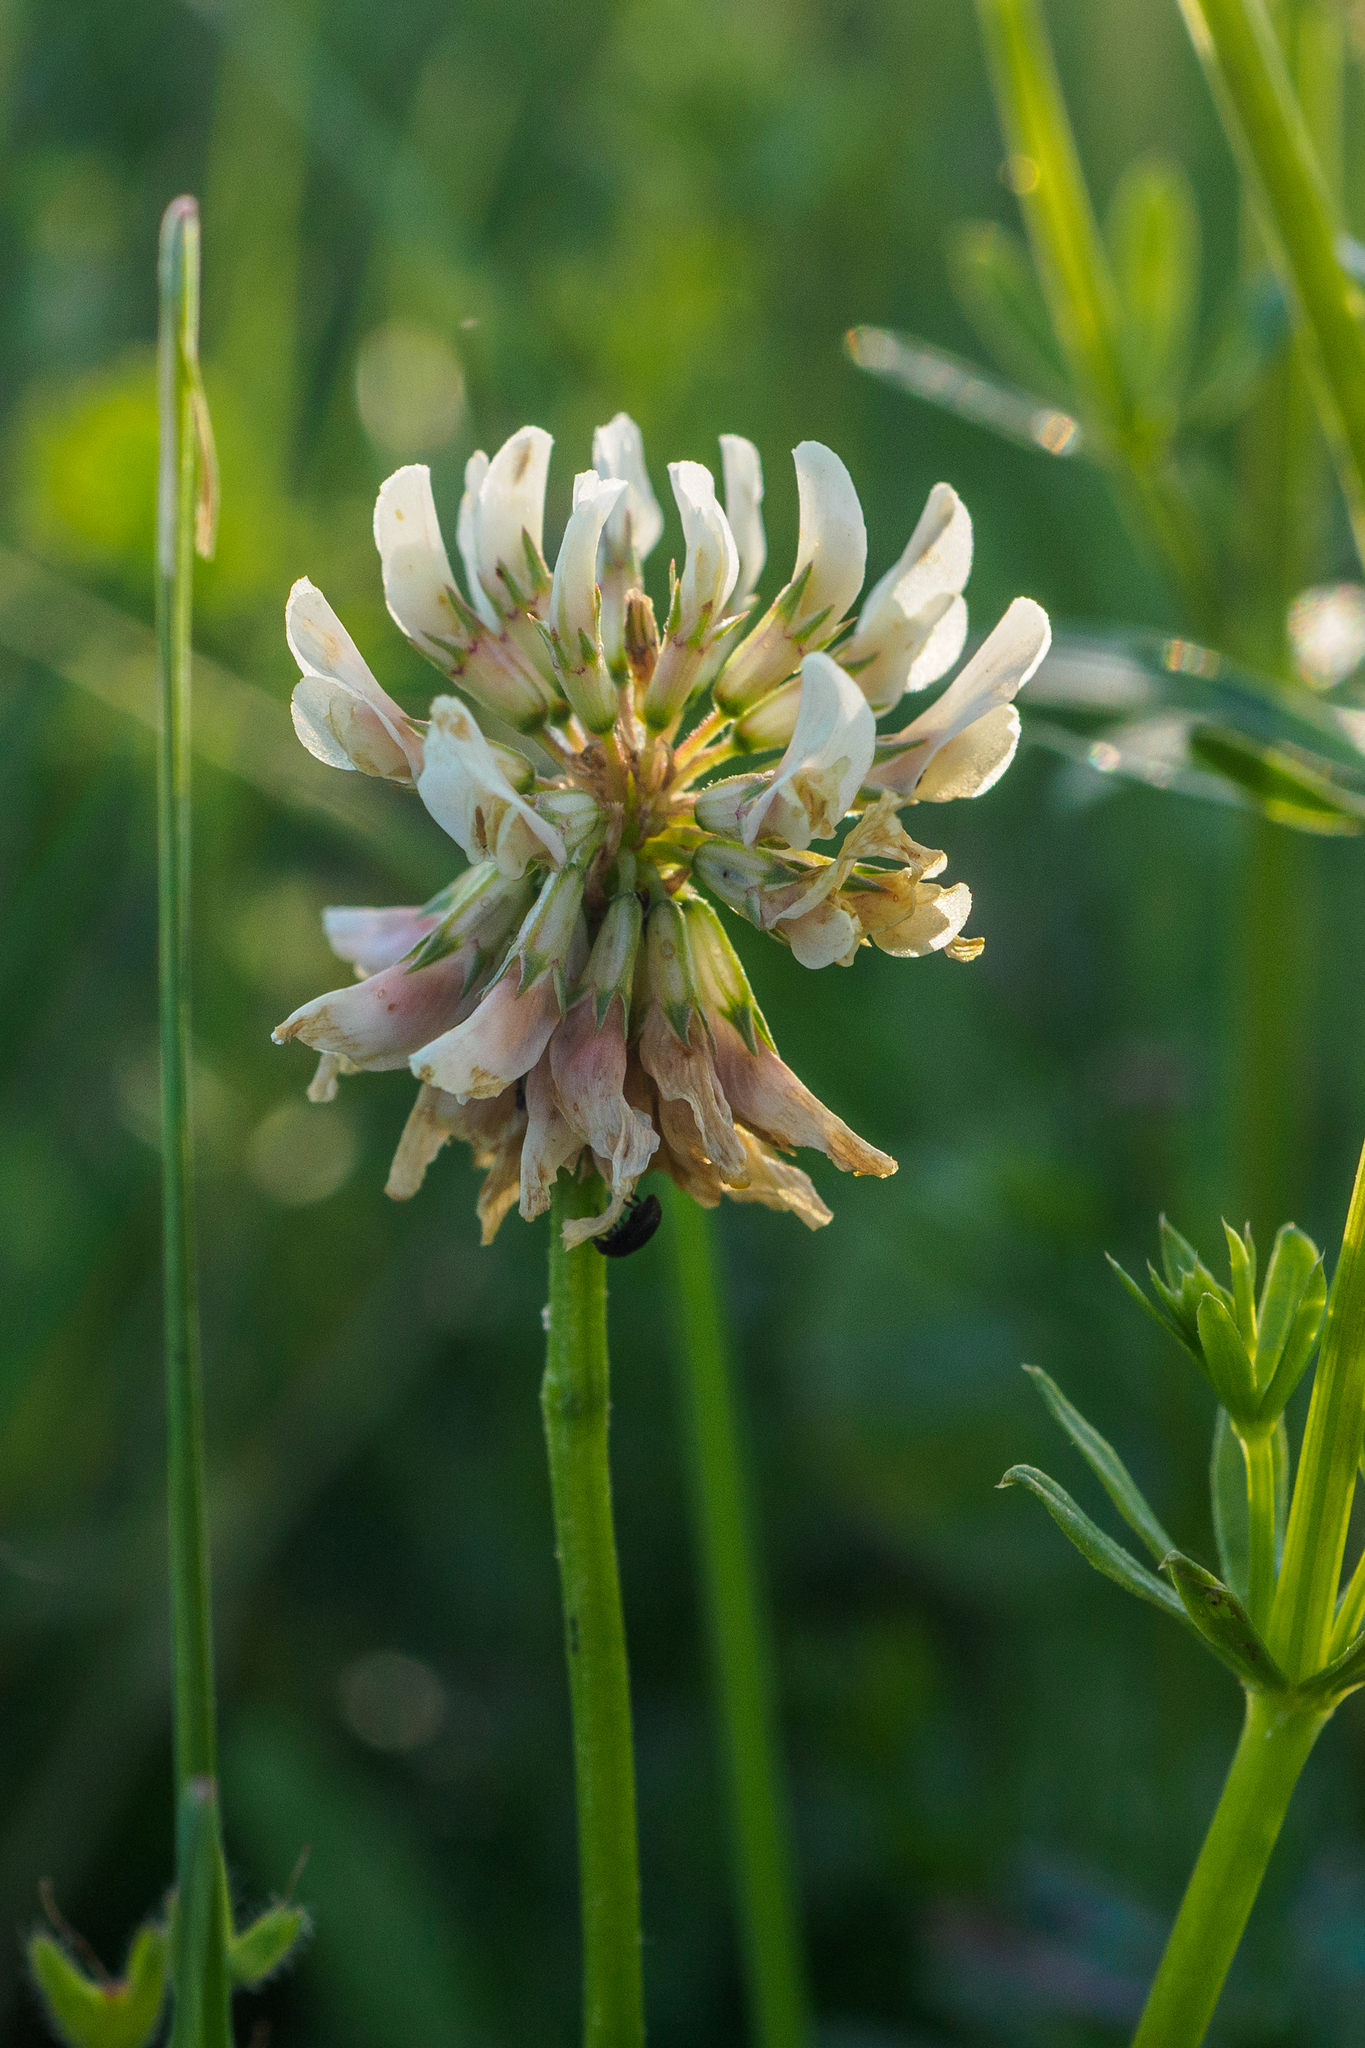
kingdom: Plantae
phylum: Tracheophyta
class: Magnoliopsida
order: Fabales
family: Fabaceae
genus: Trifolium
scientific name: Trifolium repens
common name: White clover
